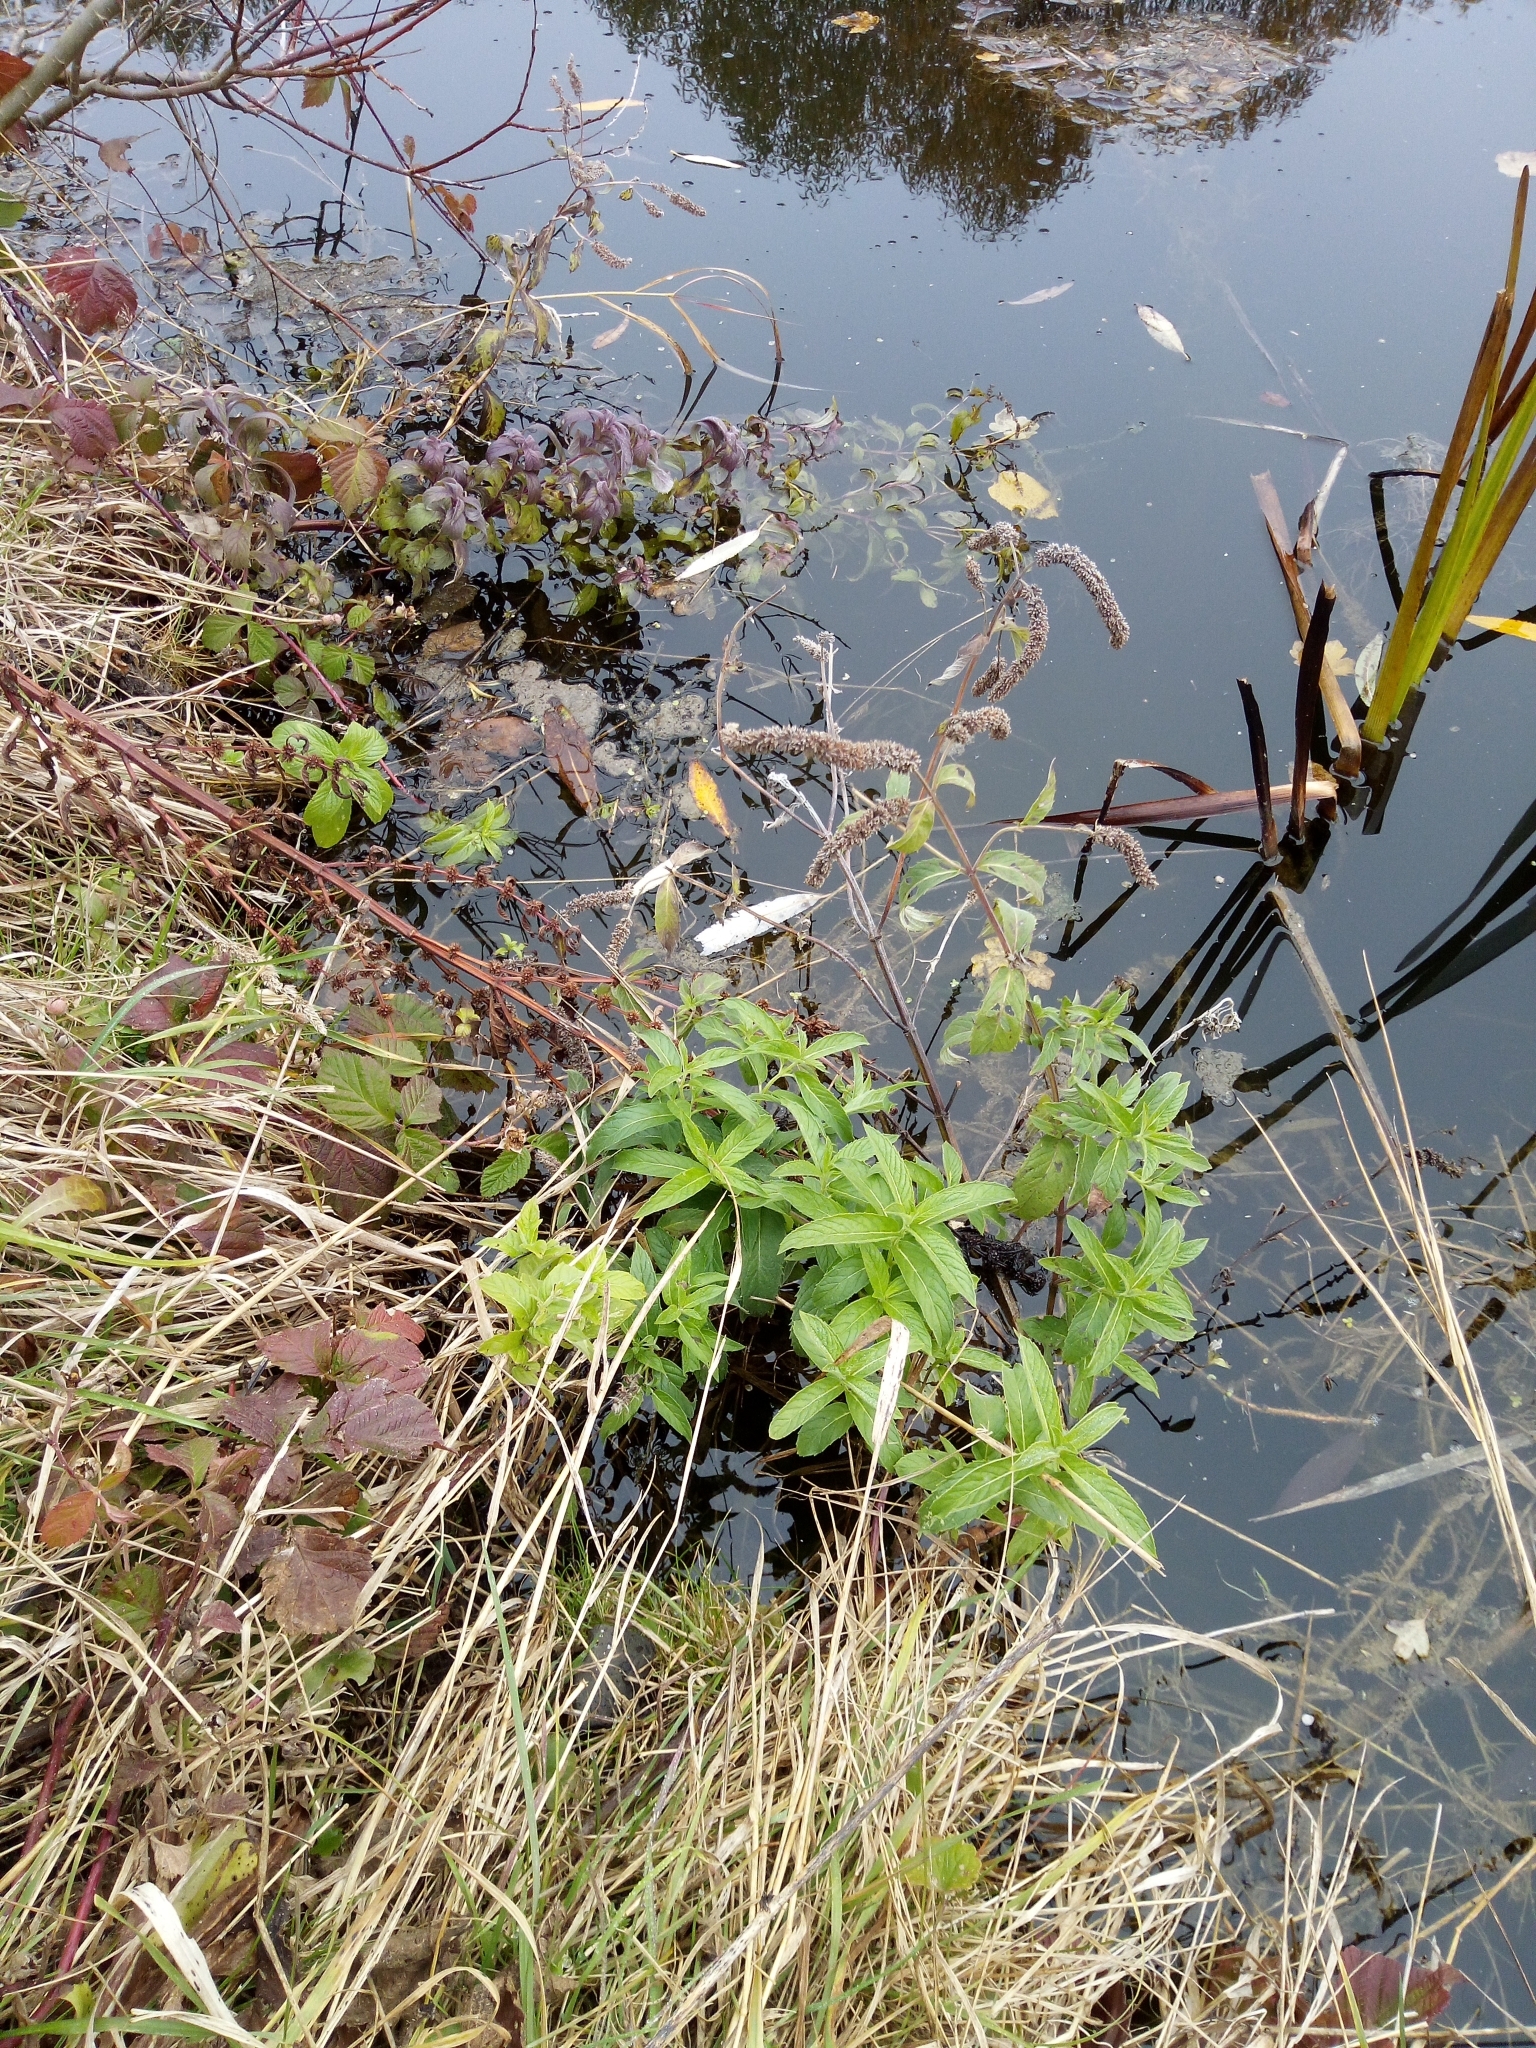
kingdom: Plantae
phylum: Tracheophyta
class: Magnoliopsida
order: Lamiales
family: Lamiaceae
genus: Mentha
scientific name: Mentha longifolia
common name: Horse mint
